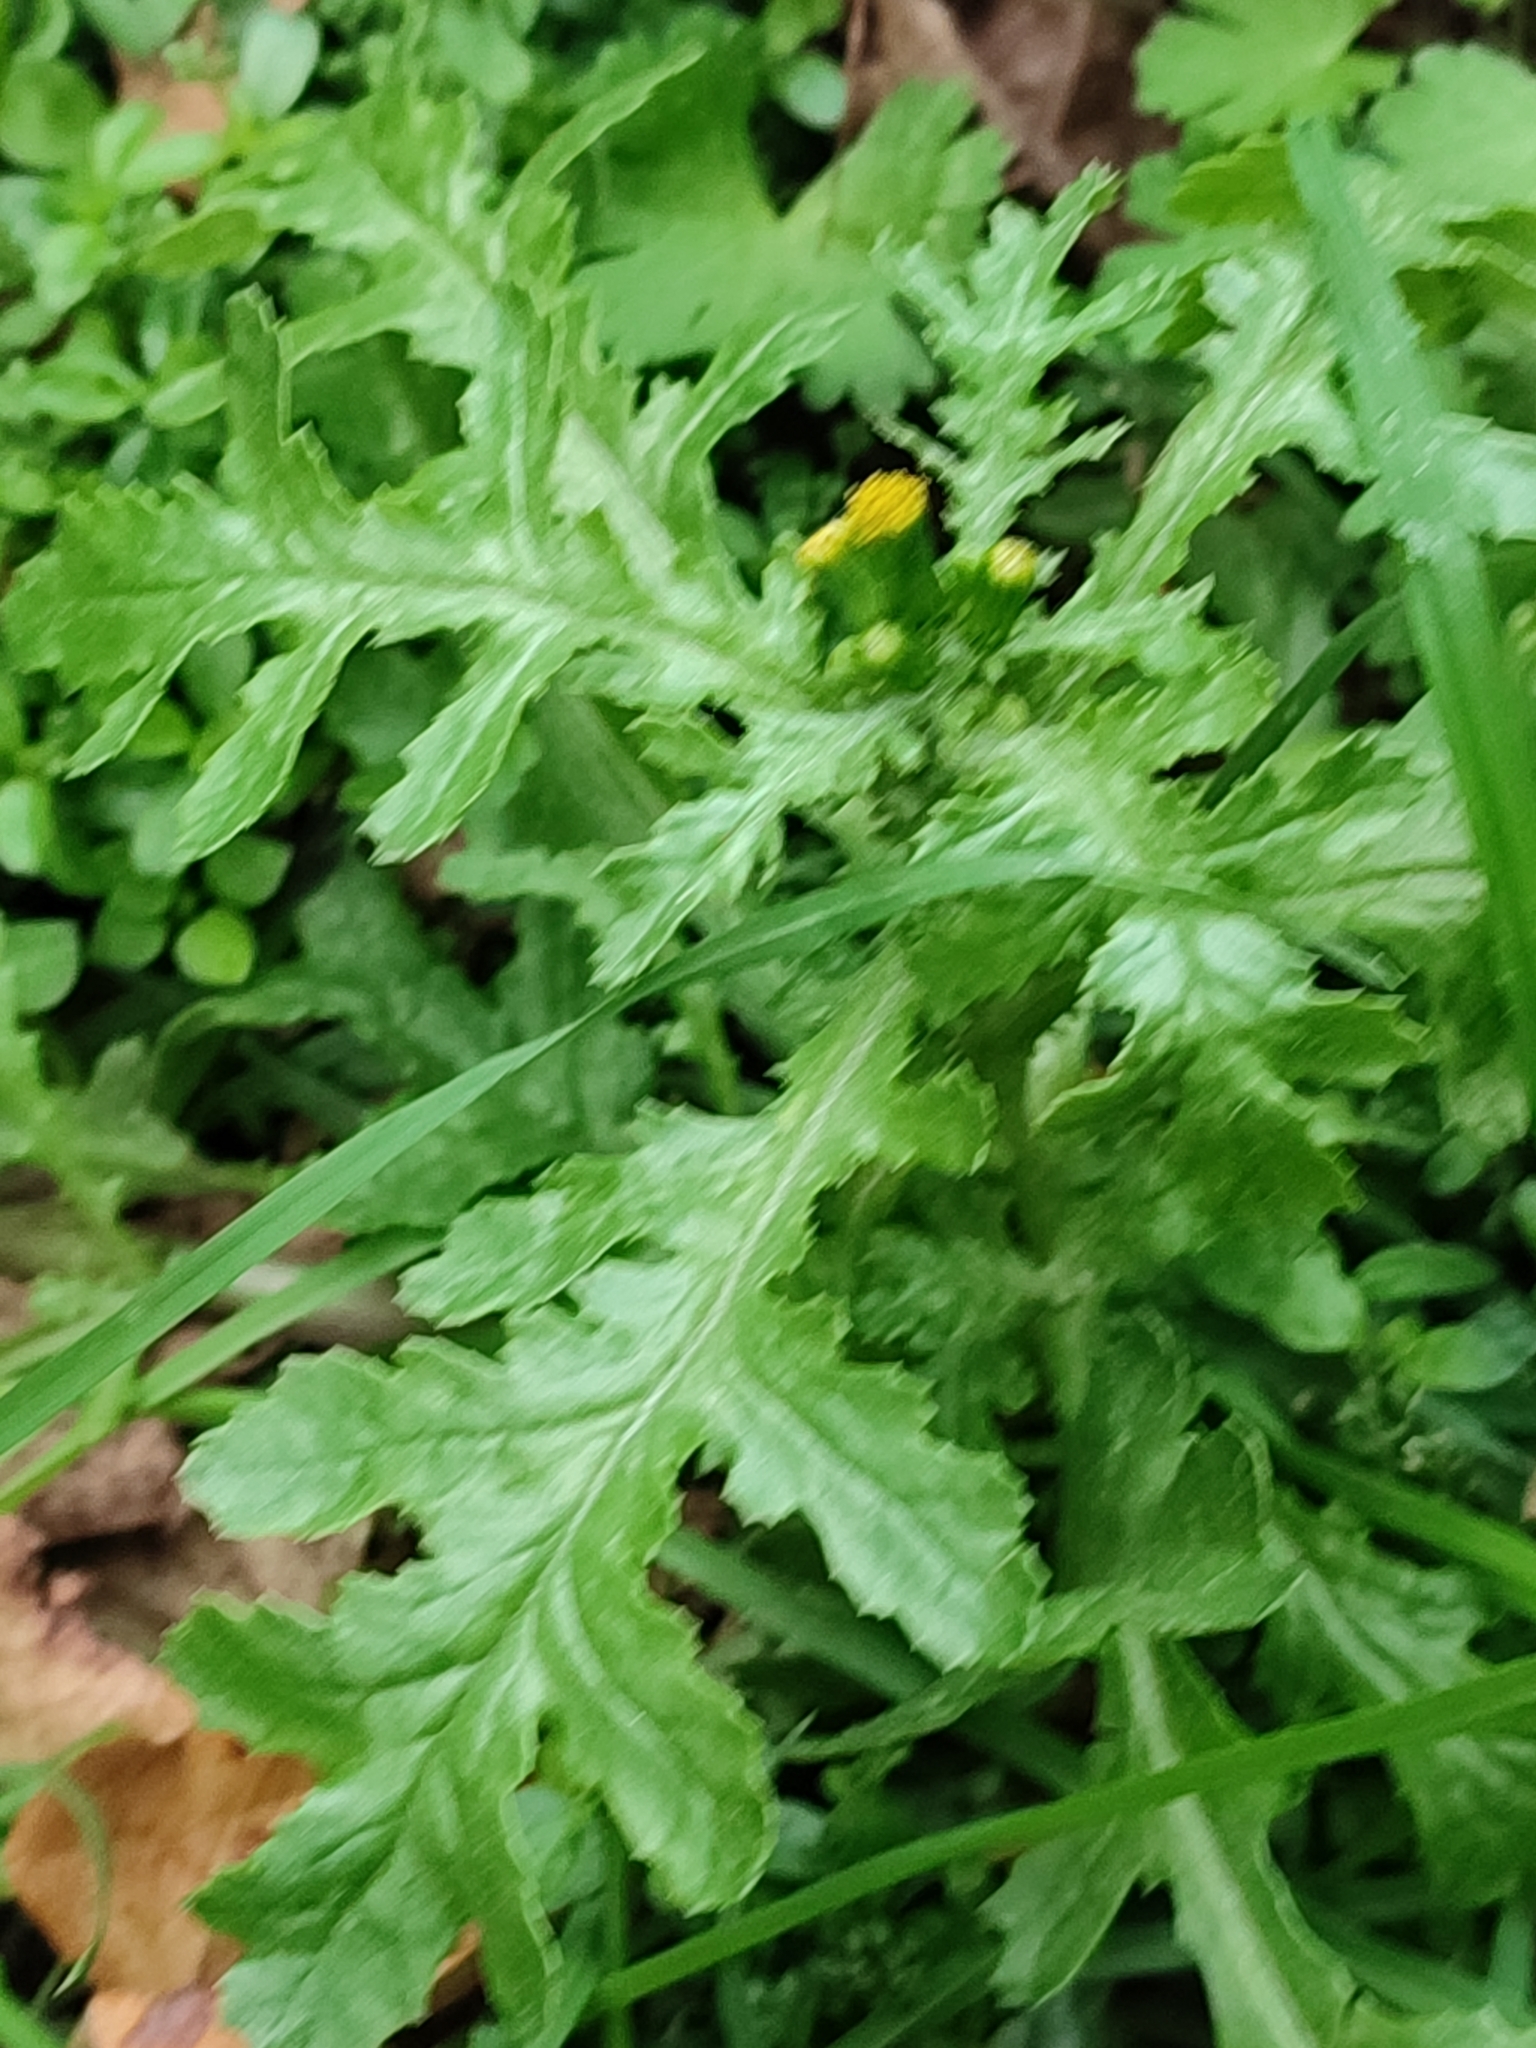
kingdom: Plantae
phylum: Tracheophyta
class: Magnoliopsida
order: Asterales
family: Asteraceae
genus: Senecio
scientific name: Senecio vulgaris
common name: Old-man-in-the-spring
